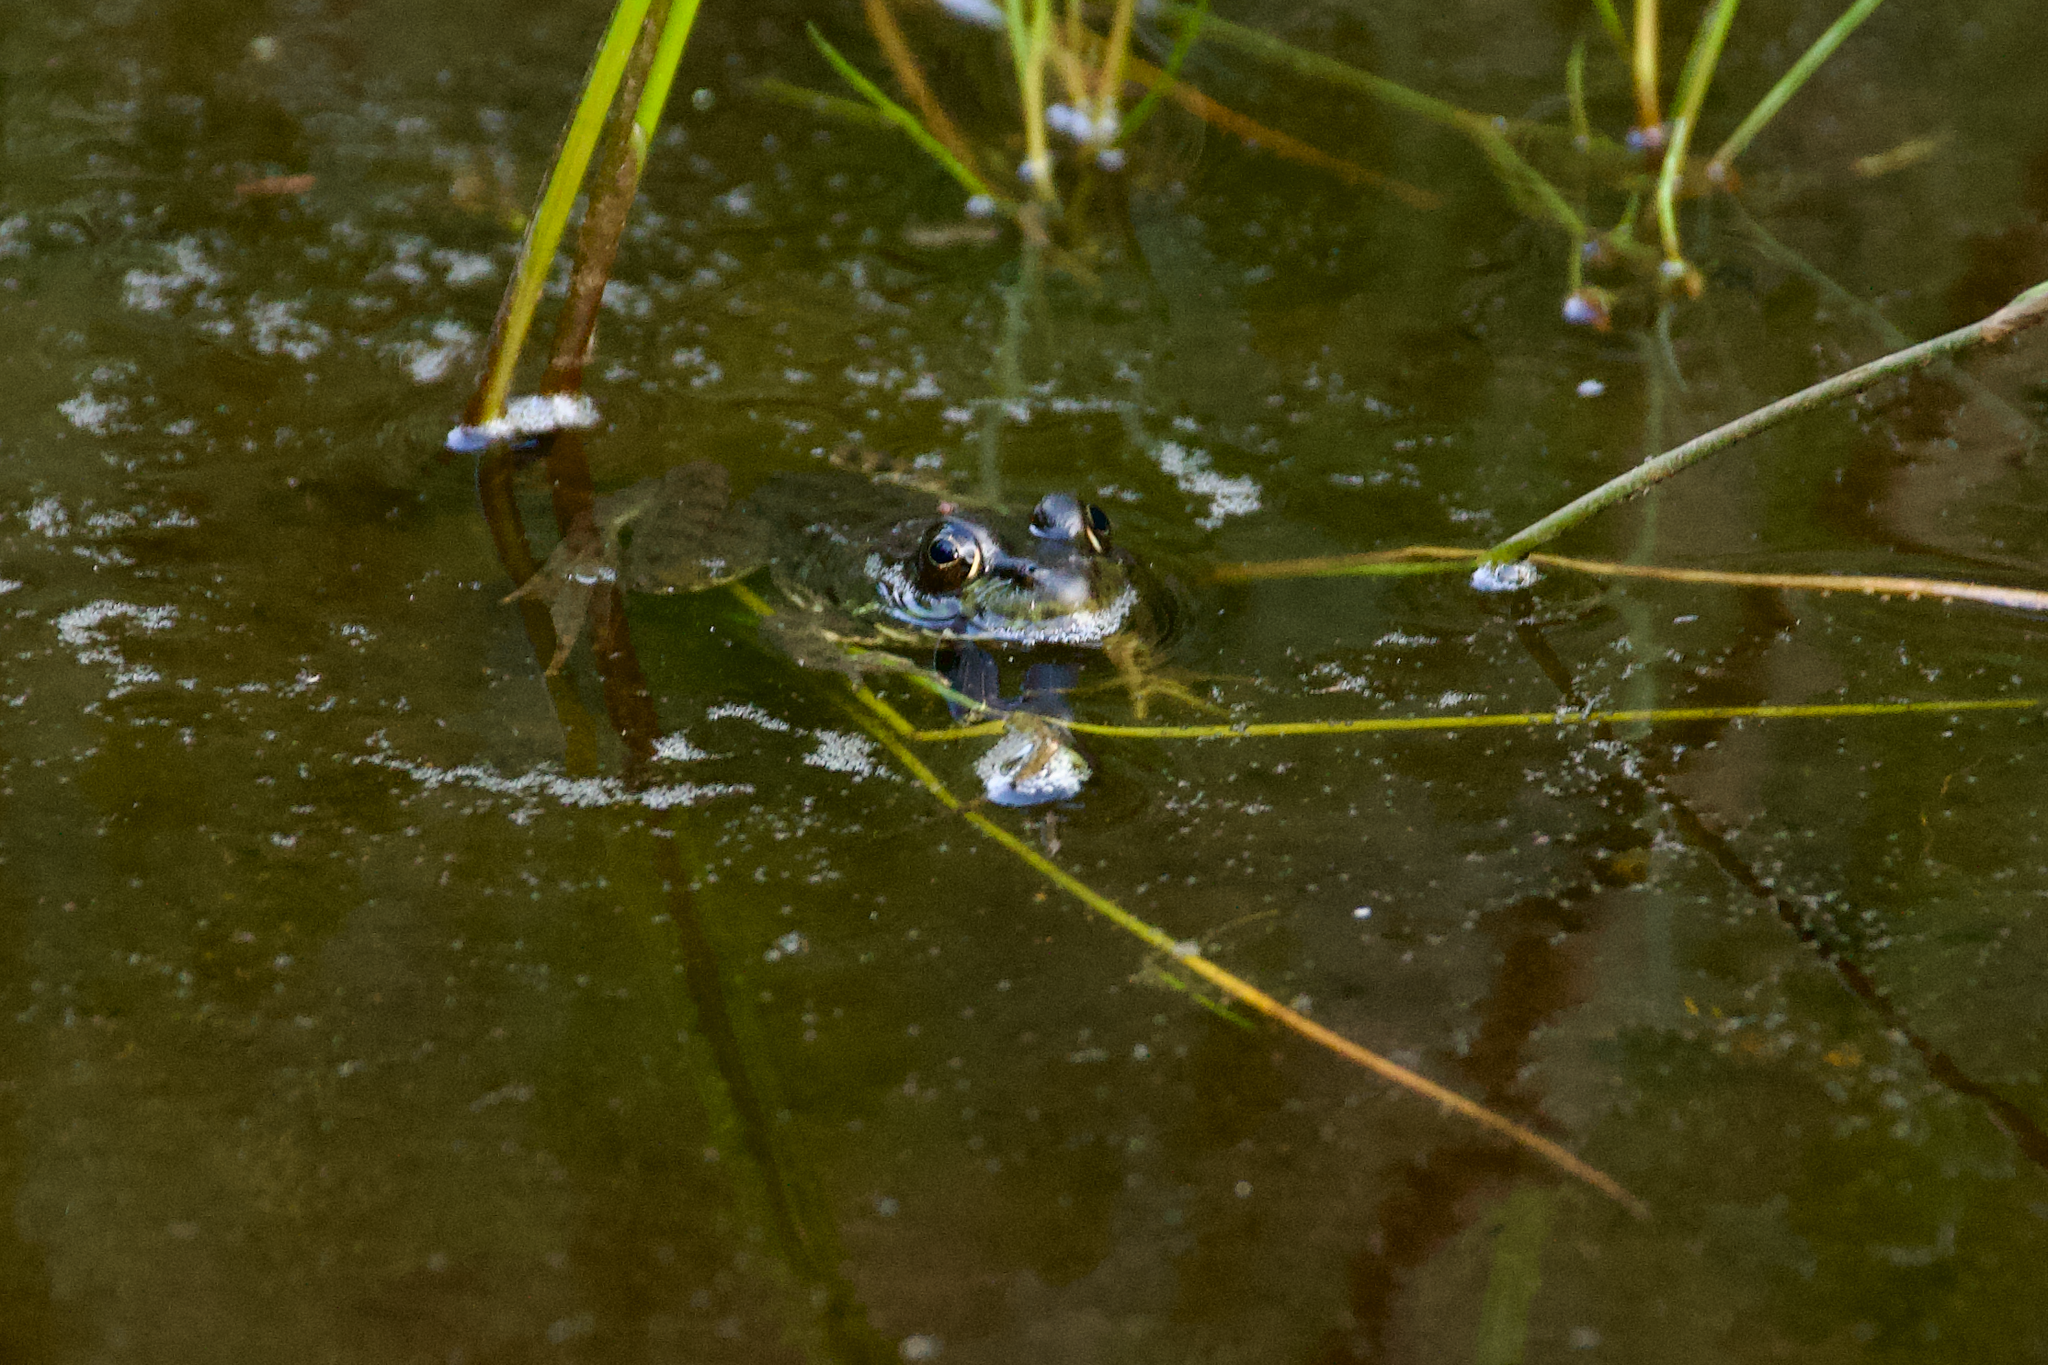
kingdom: Animalia
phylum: Chordata
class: Amphibia
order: Anura
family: Ranidae
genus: Lithobates
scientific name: Lithobates clamitans
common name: Green frog
